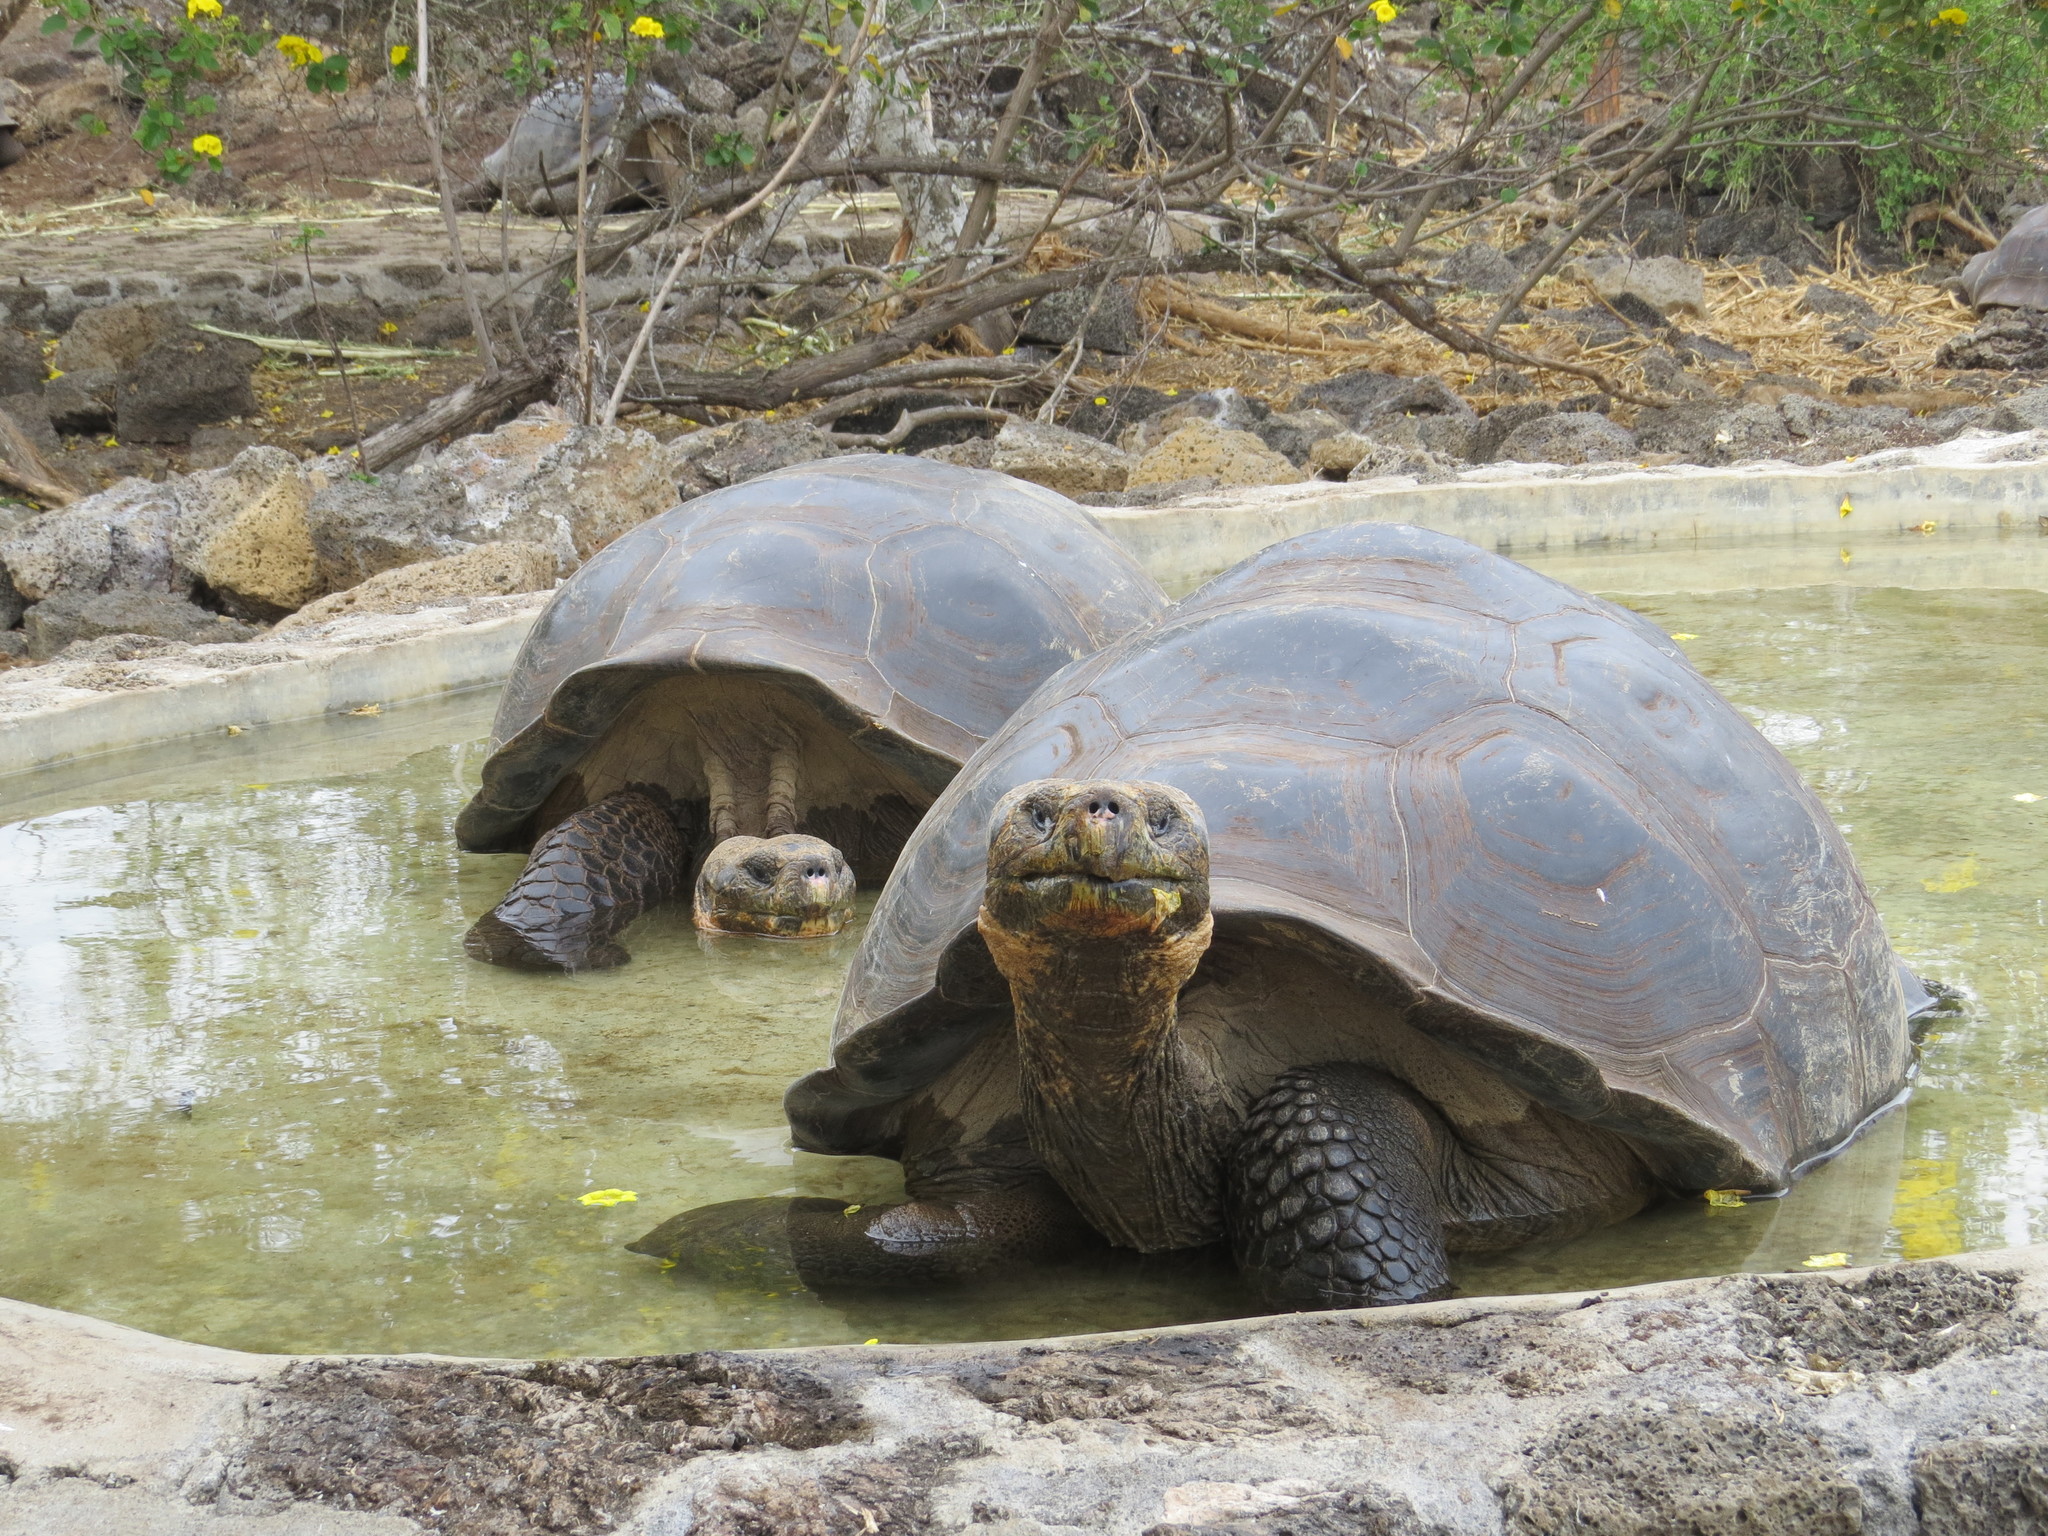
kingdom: Animalia
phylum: Chordata
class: Testudines
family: Testudinidae
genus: Chelonoidis
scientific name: Chelonoidis porteri
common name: Indefatigable island giant tortoise
